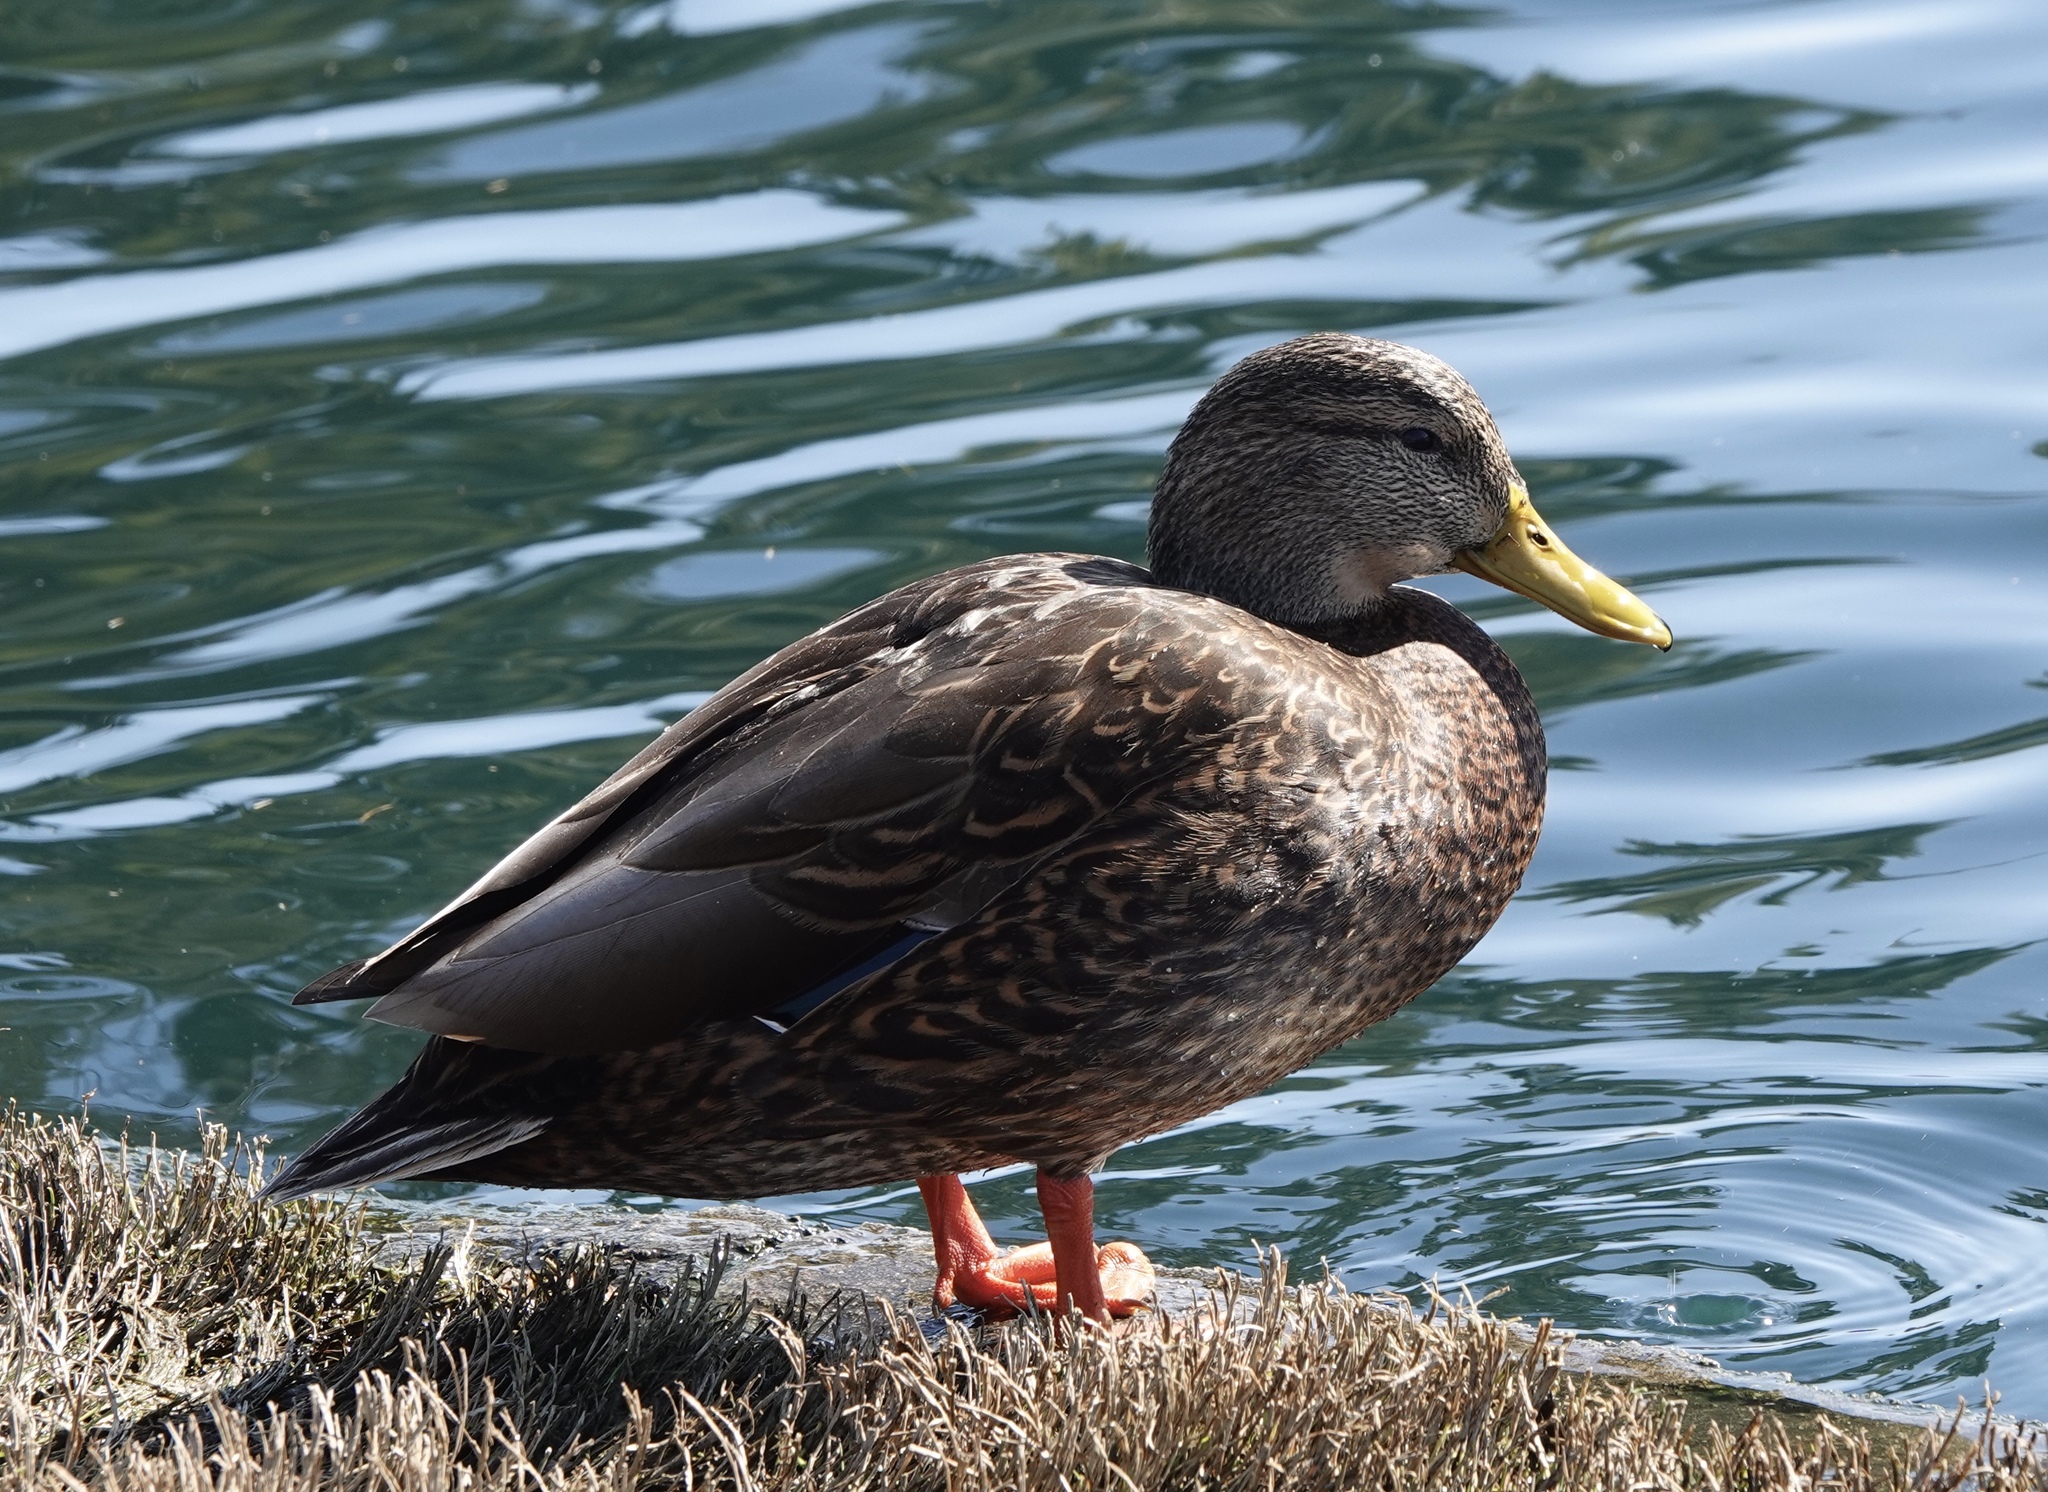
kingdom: Animalia
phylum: Chordata
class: Aves
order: Anseriformes
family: Anatidae
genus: Anas
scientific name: Anas diazi
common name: Mexican duck
